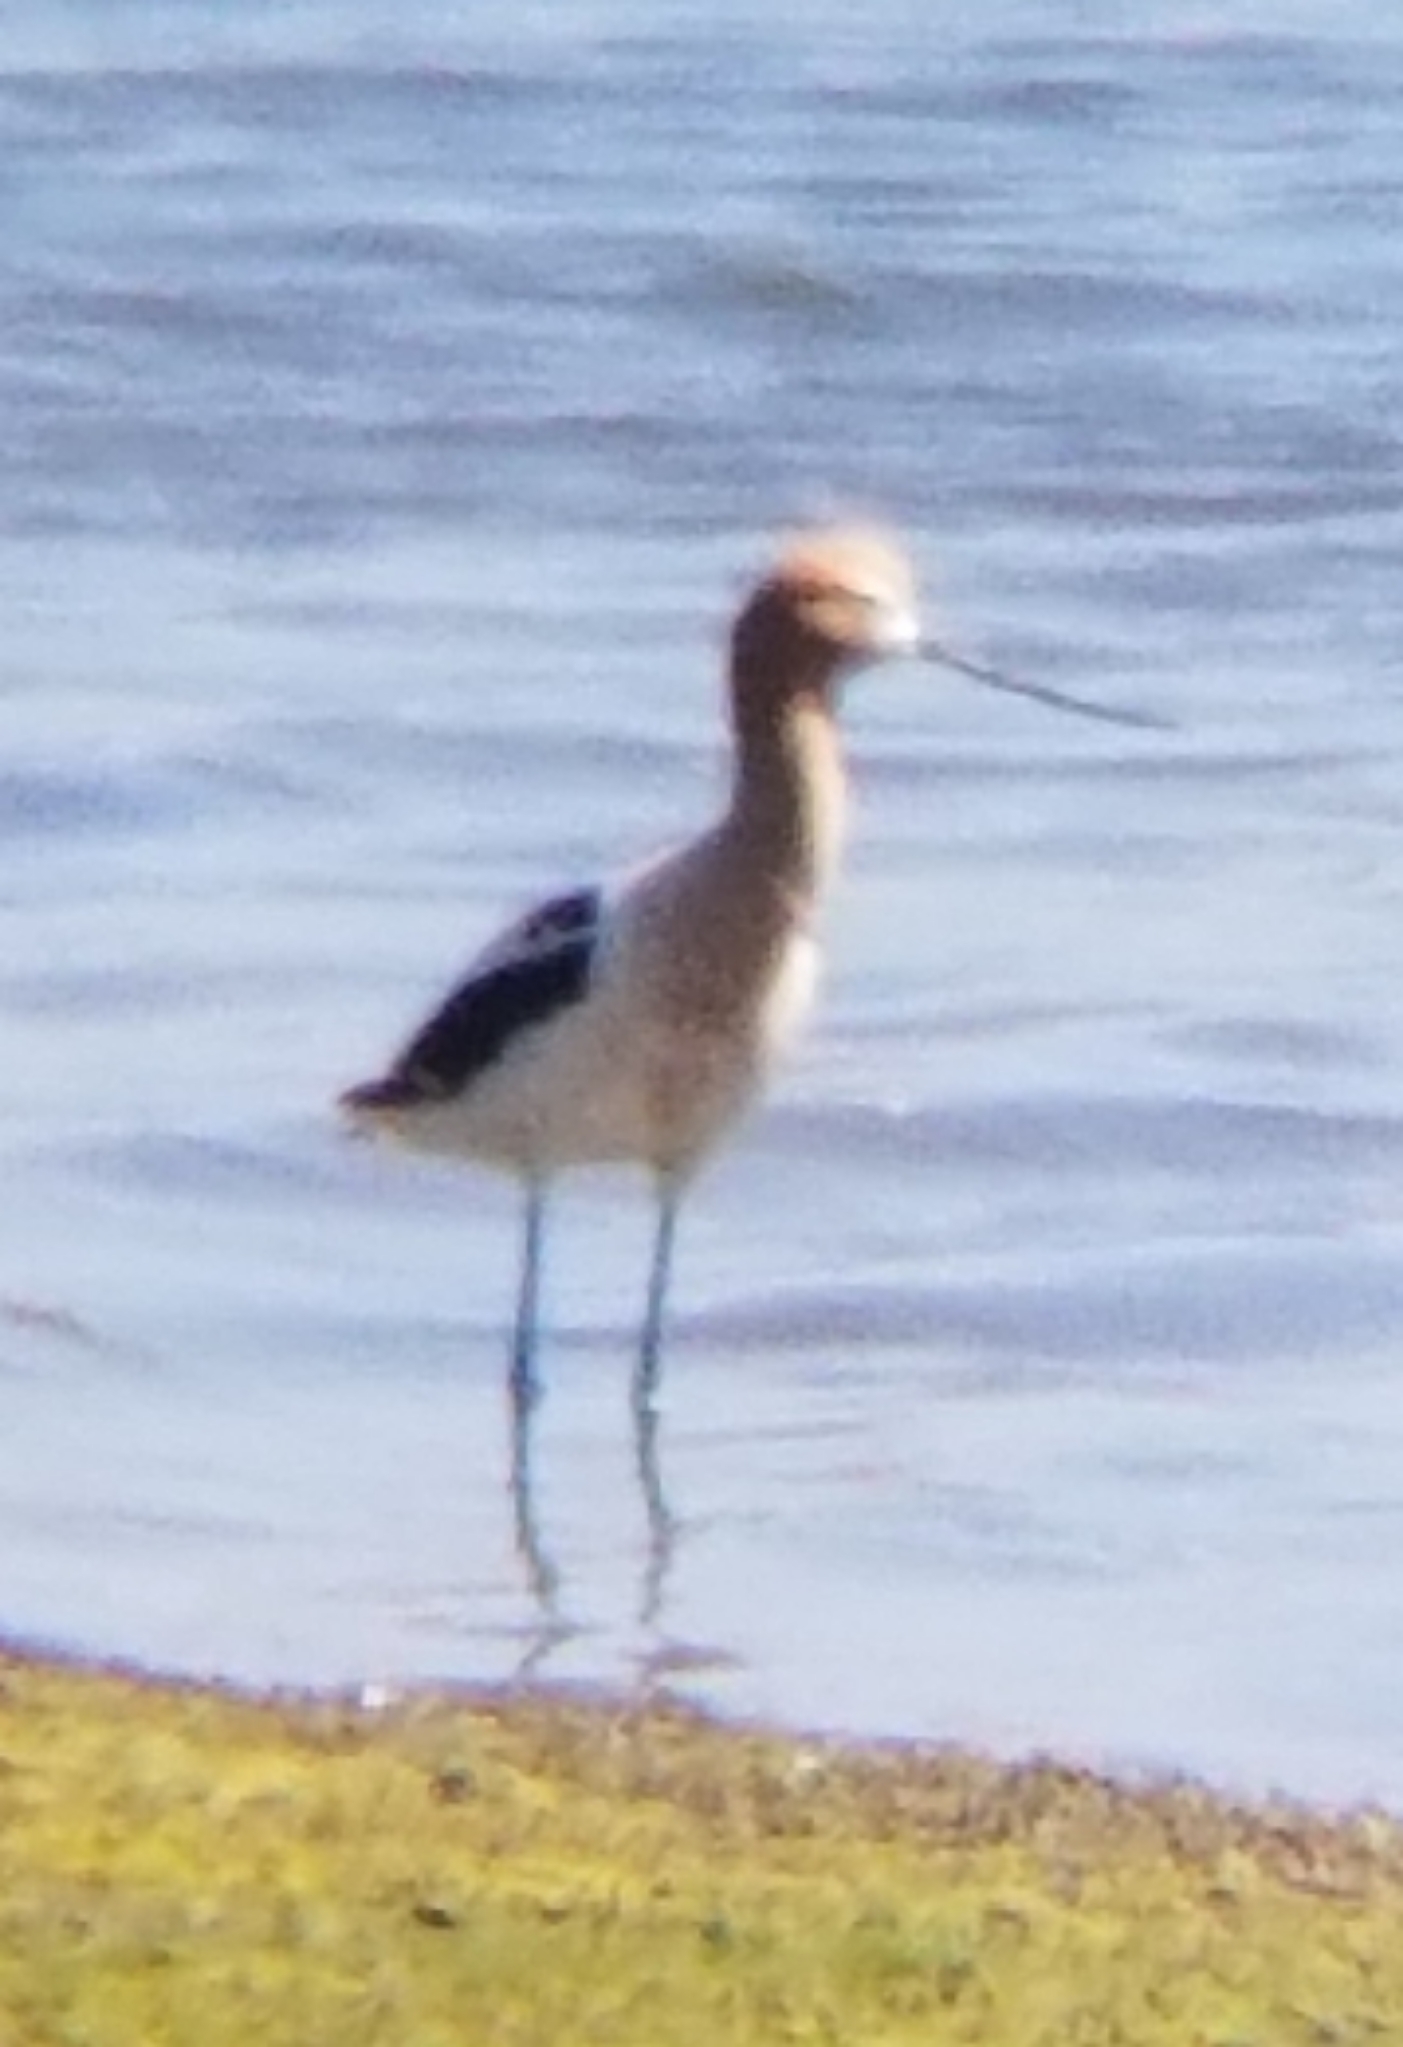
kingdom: Animalia
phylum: Chordata
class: Aves
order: Charadriiformes
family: Recurvirostridae
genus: Recurvirostra
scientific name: Recurvirostra americana
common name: American avocet
